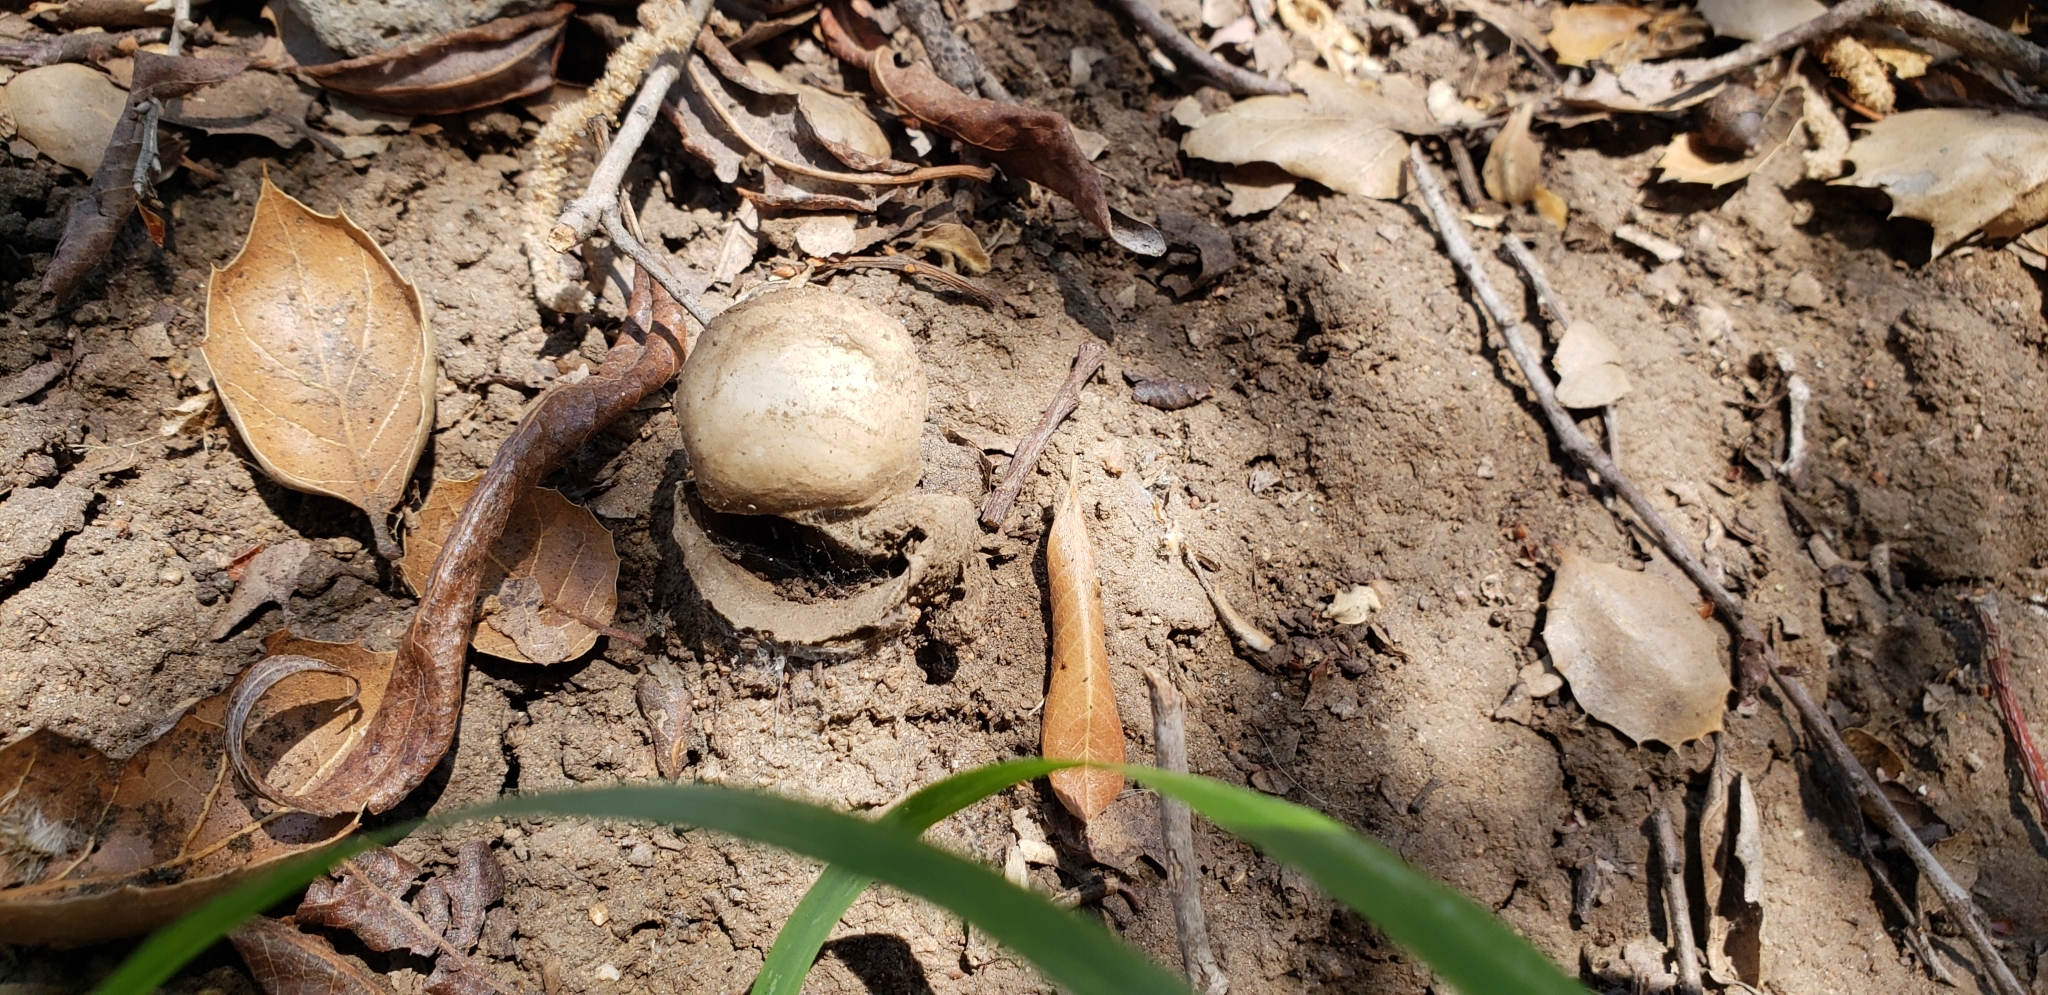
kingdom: Animalia
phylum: Arthropoda
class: Arachnida
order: Araneae
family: Halonoproctidae
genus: Bothriocyrtum
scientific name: Bothriocyrtum californicum
